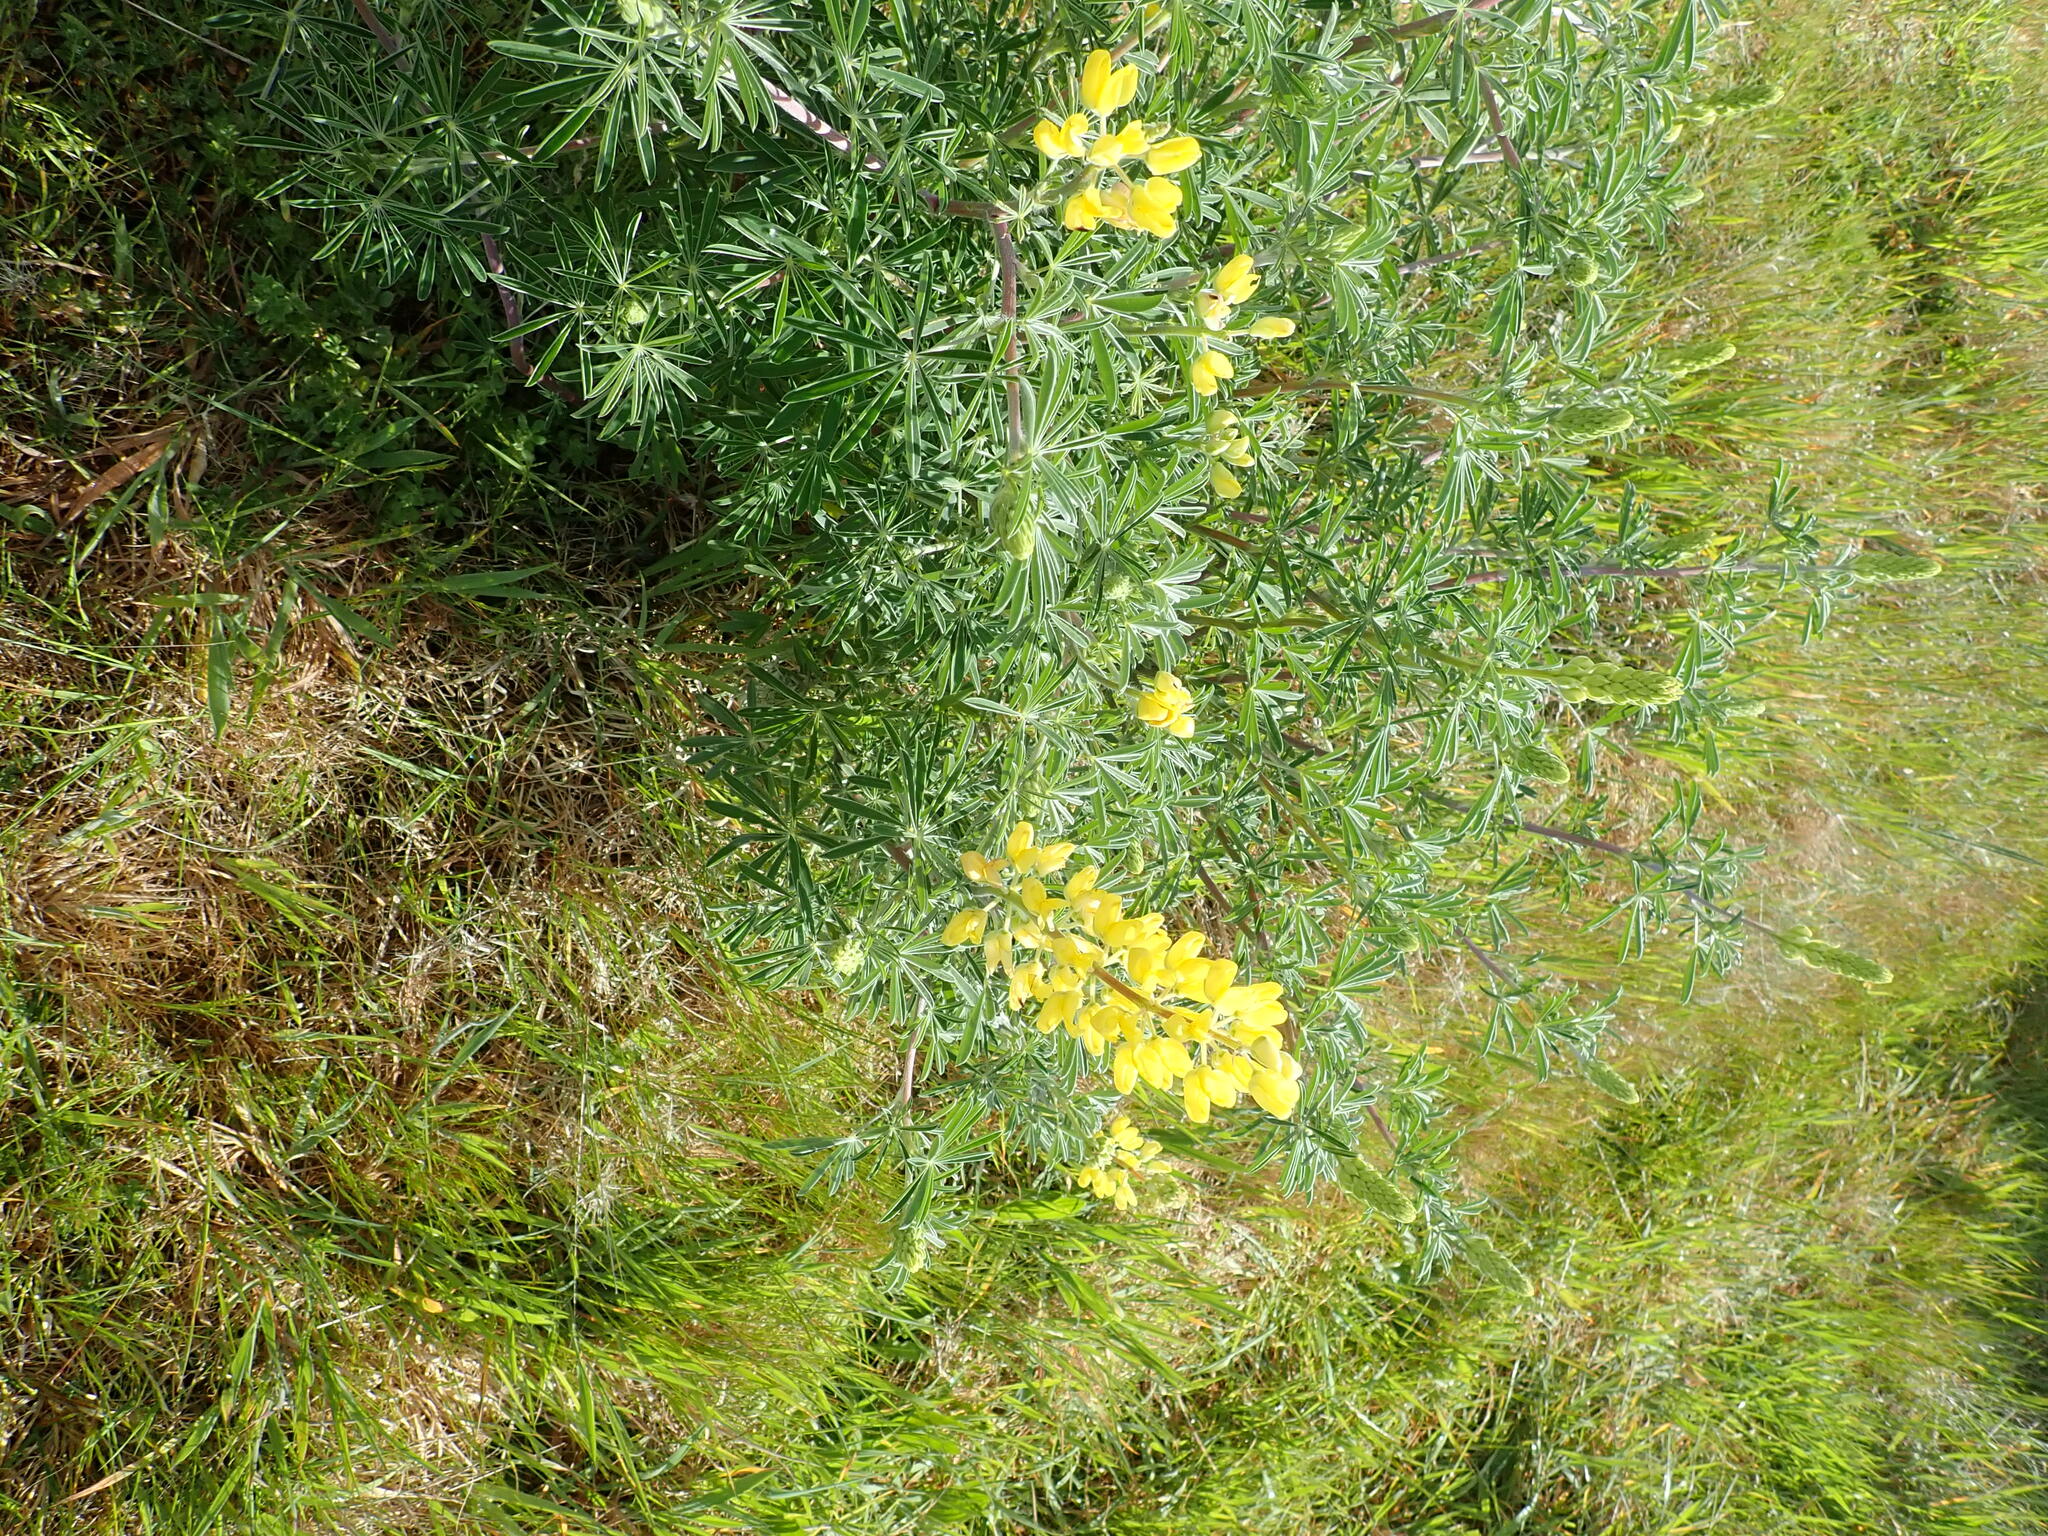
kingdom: Plantae
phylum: Tracheophyta
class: Magnoliopsida
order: Fabales
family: Fabaceae
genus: Lupinus
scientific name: Lupinus arboreus
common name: Yellow bush lupine
